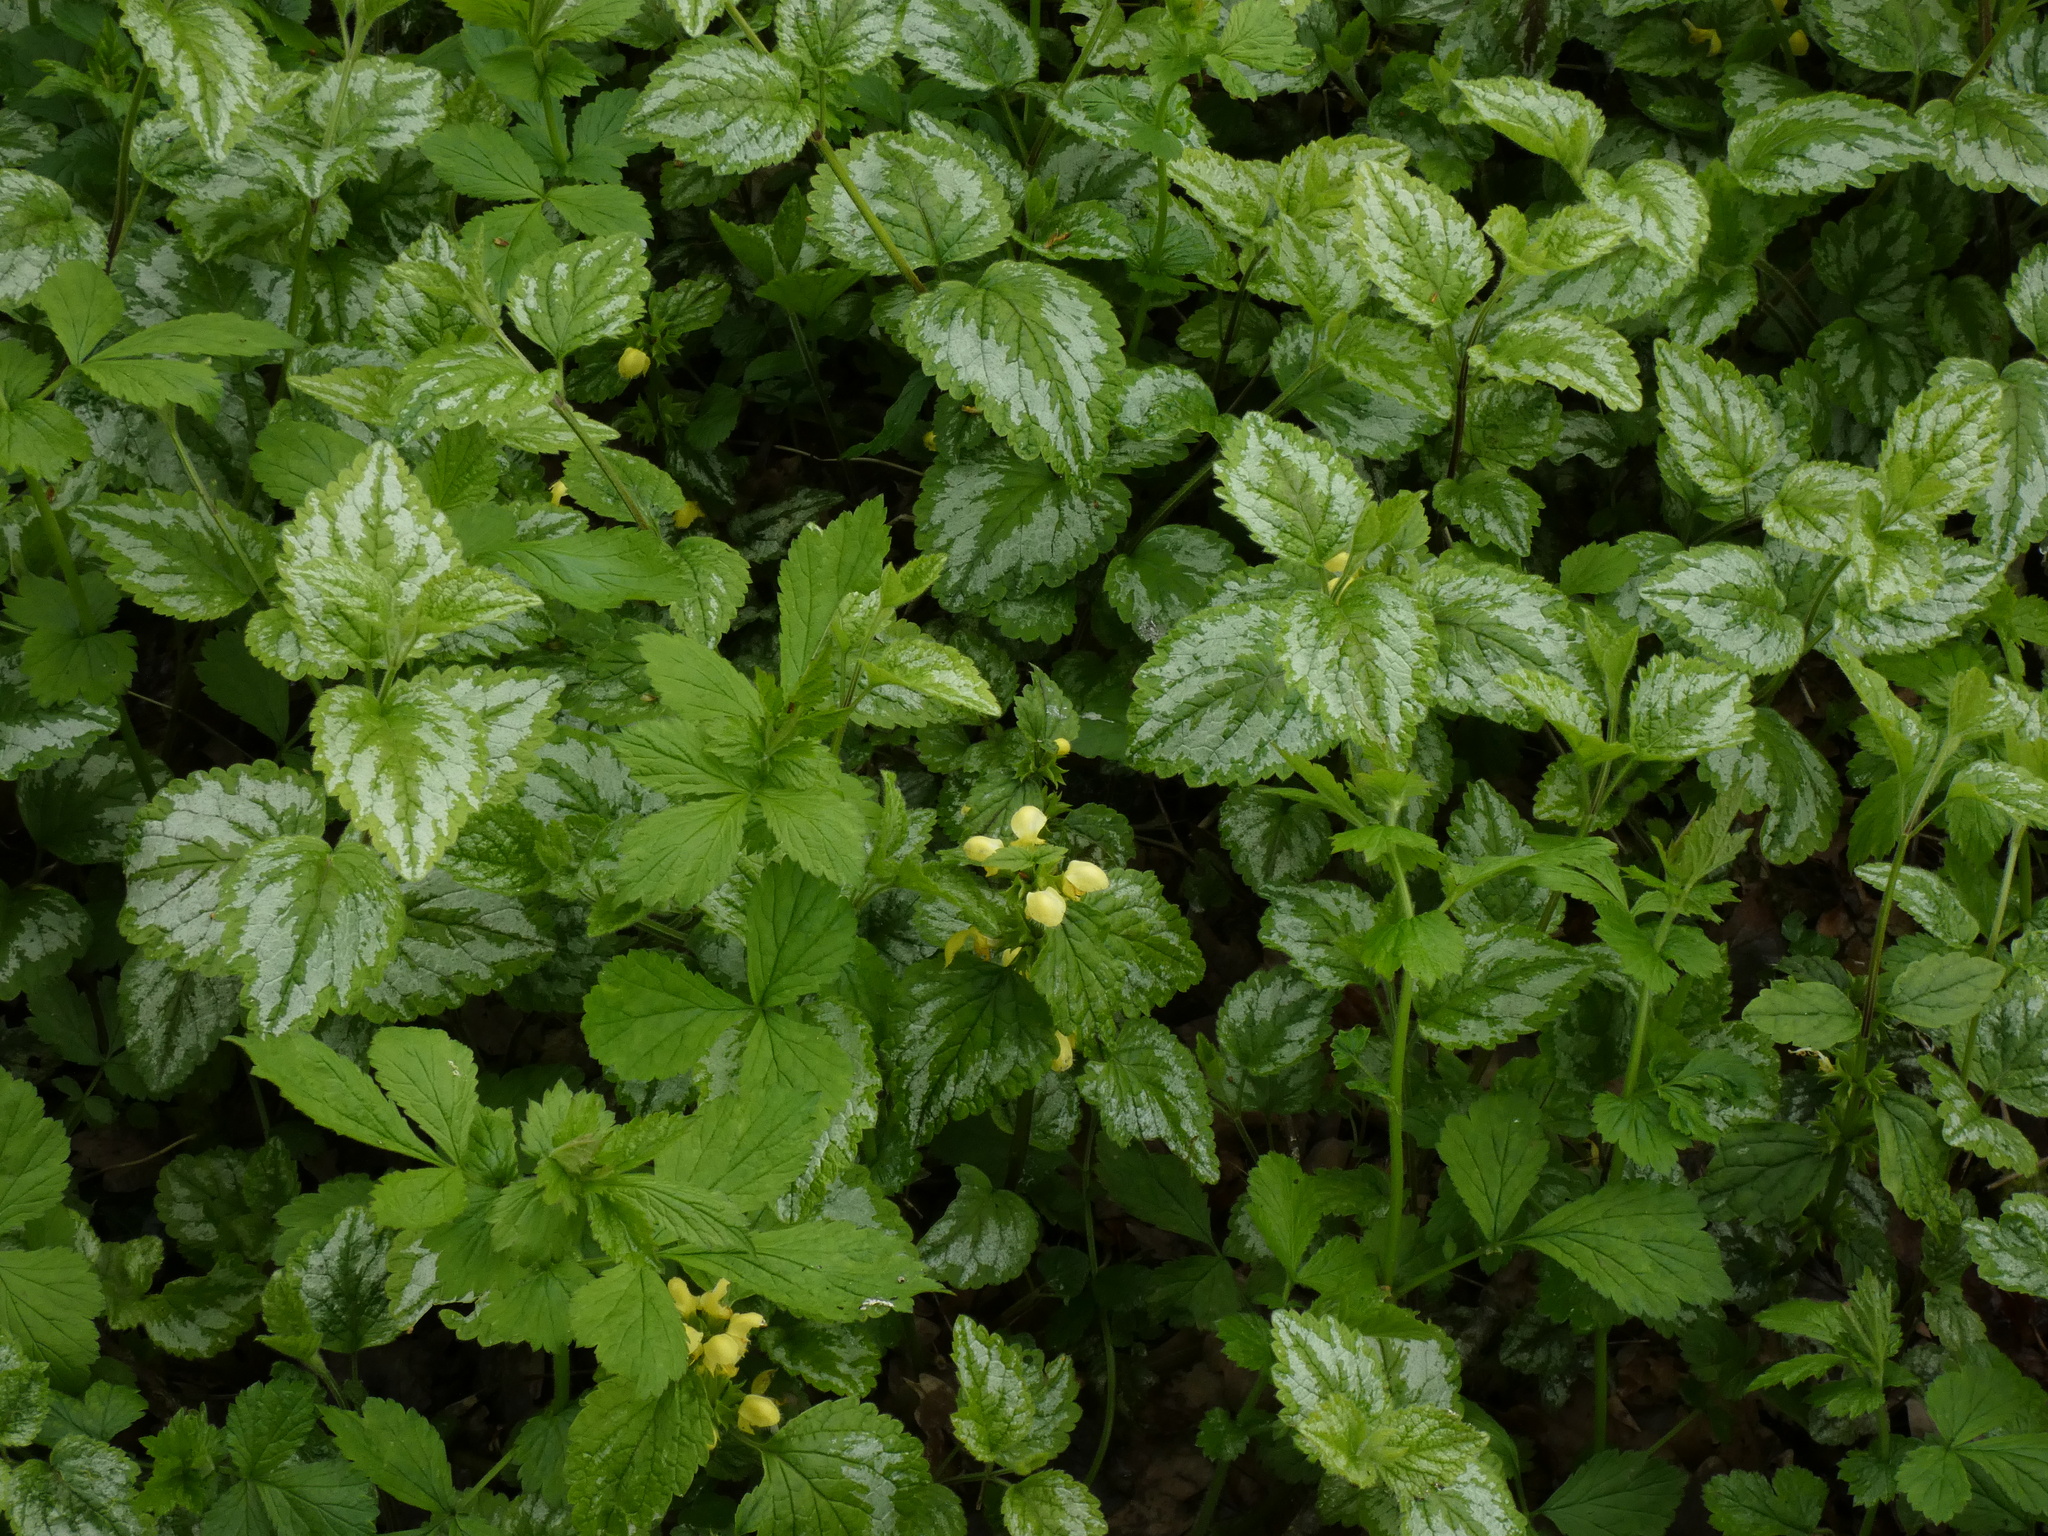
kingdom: Plantae
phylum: Tracheophyta
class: Magnoliopsida
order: Lamiales
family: Lamiaceae
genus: Lamium
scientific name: Lamium galeobdolon
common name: Yellow archangel
